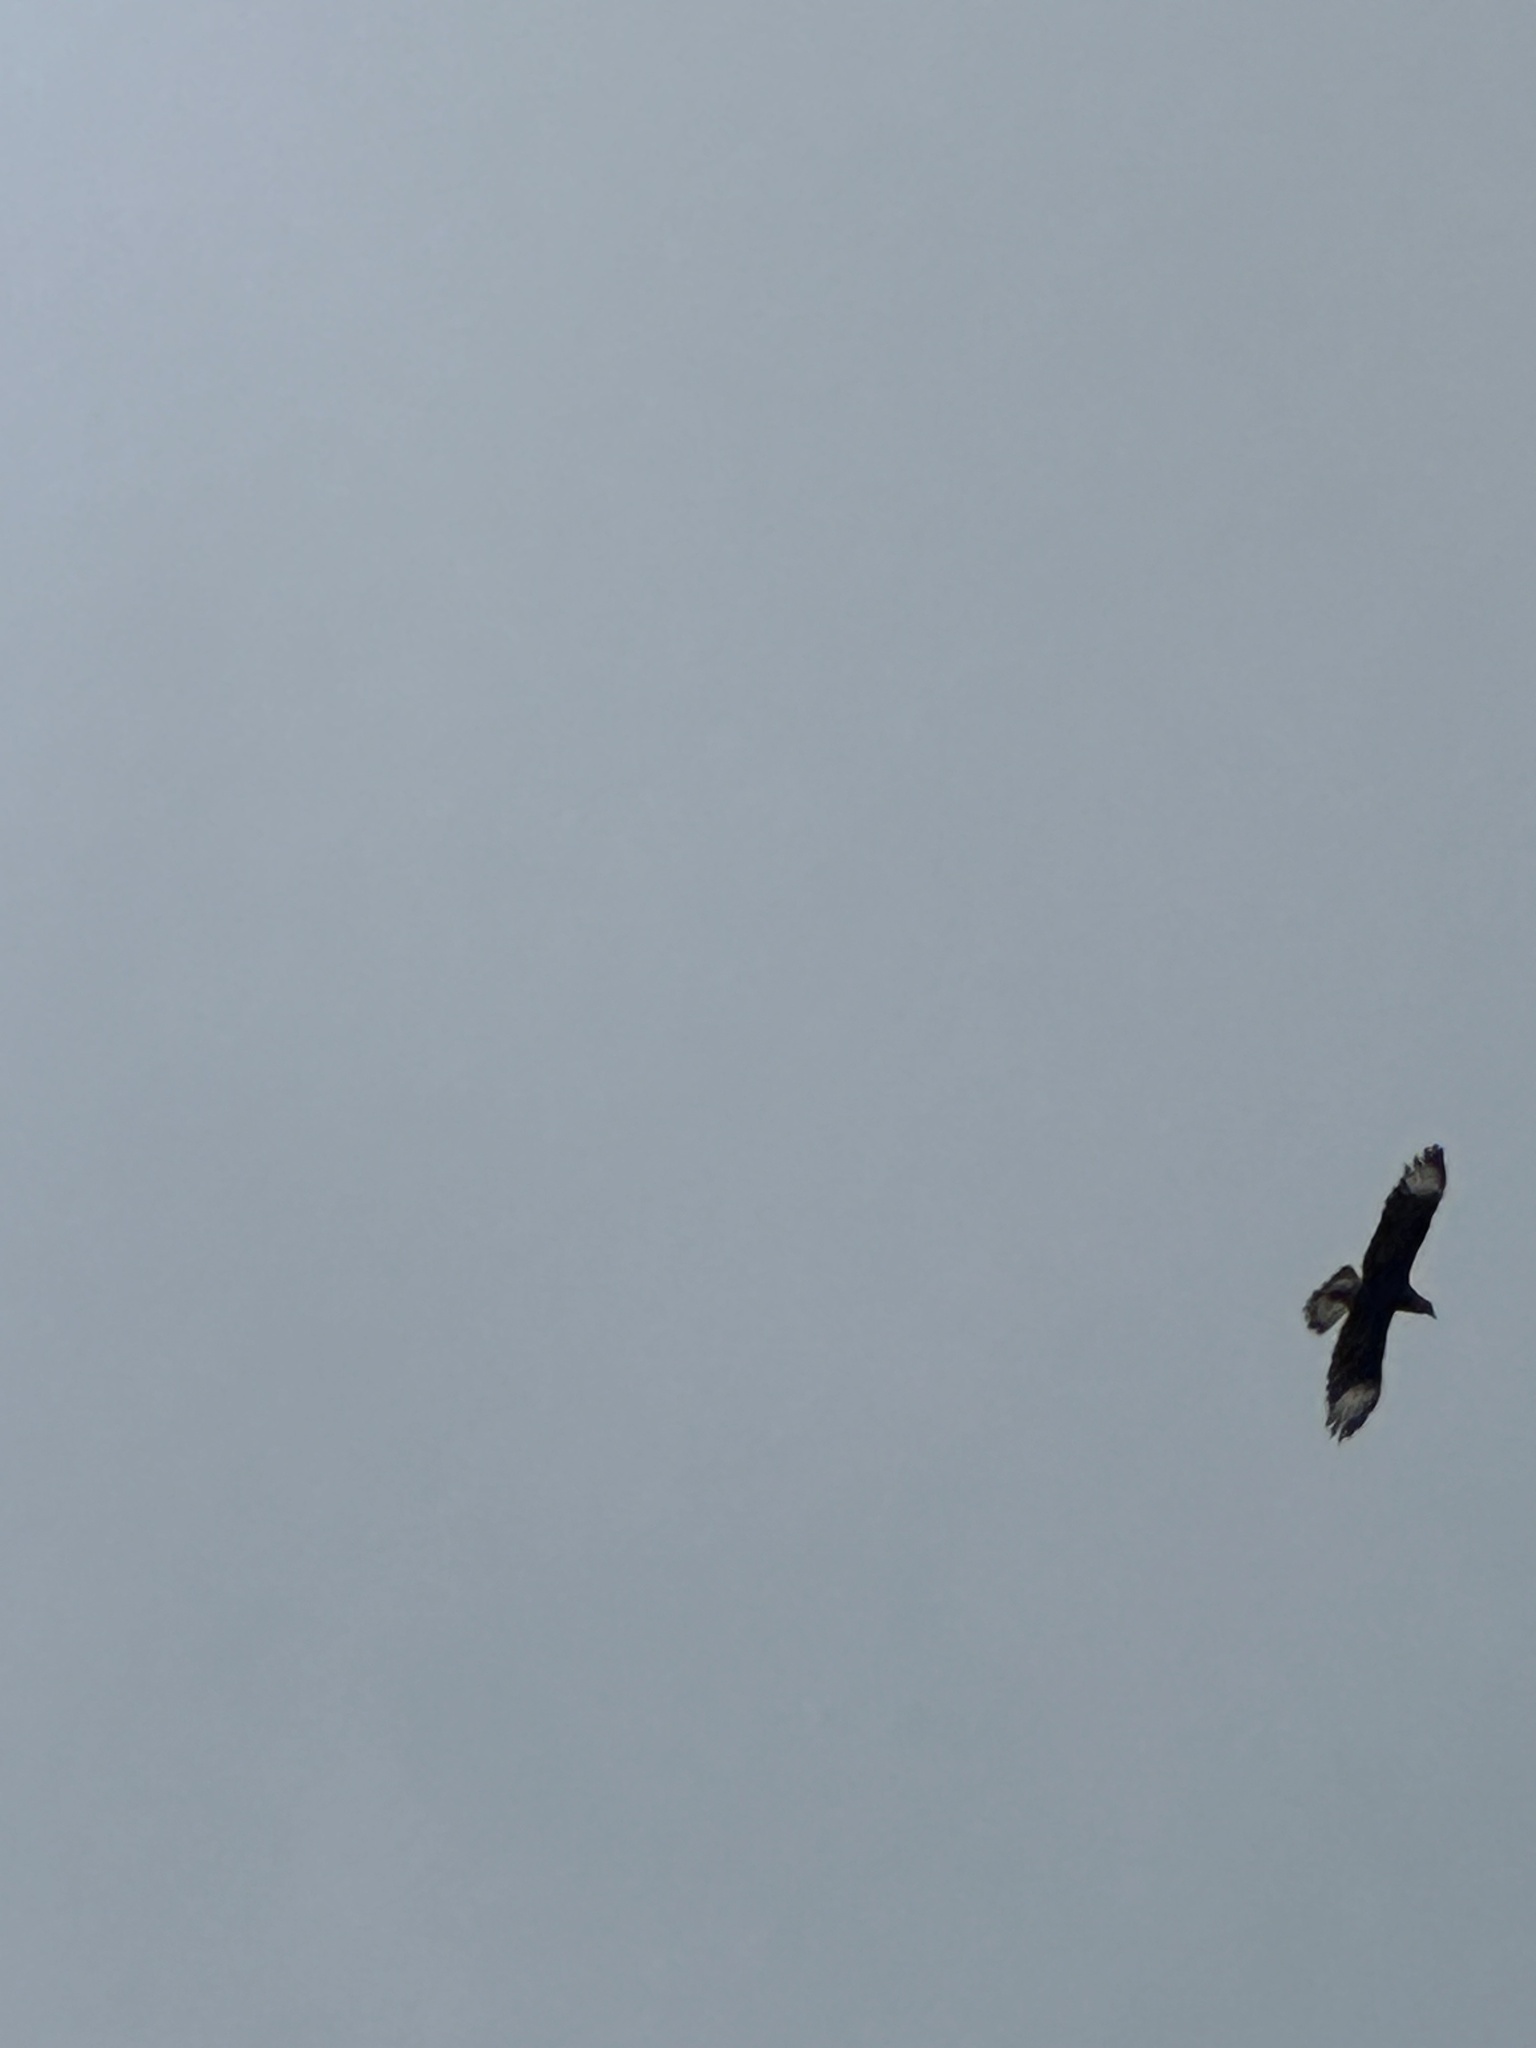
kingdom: Animalia
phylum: Chordata
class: Aves
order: Falconiformes
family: Falconidae
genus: Caracara
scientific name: Caracara plancus
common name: Southern caracara
